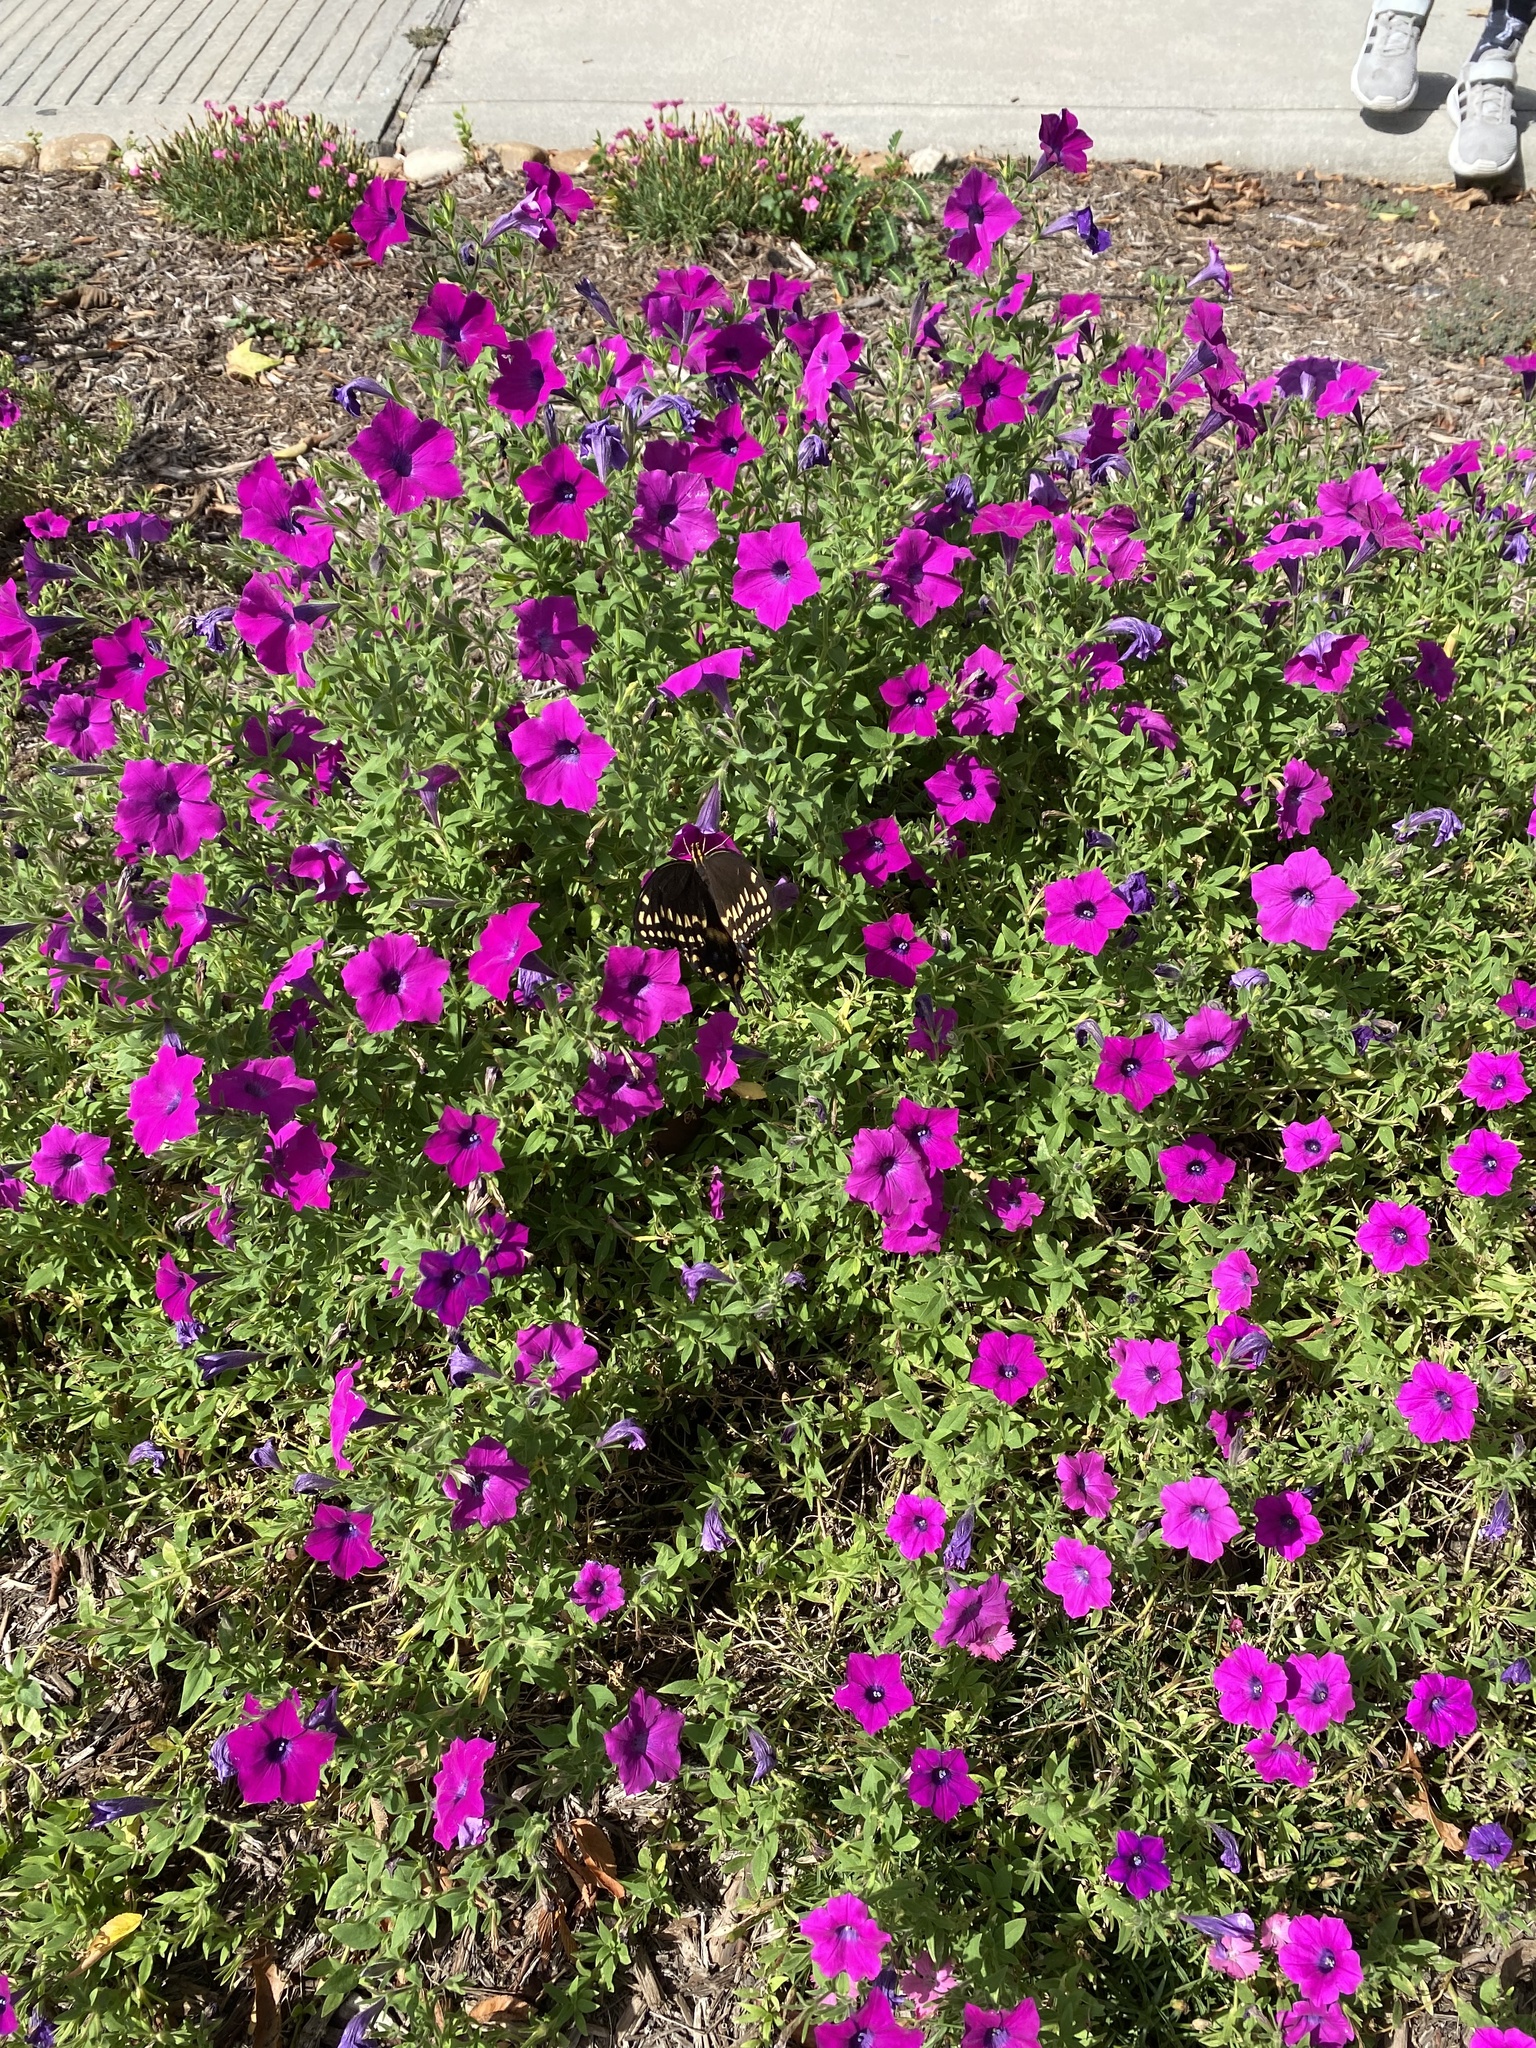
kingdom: Animalia
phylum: Arthropoda
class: Insecta
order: Lepidoptera
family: Papilionidae
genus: Papilio
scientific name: Papilio palamedes
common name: Palamedes swallowtail
